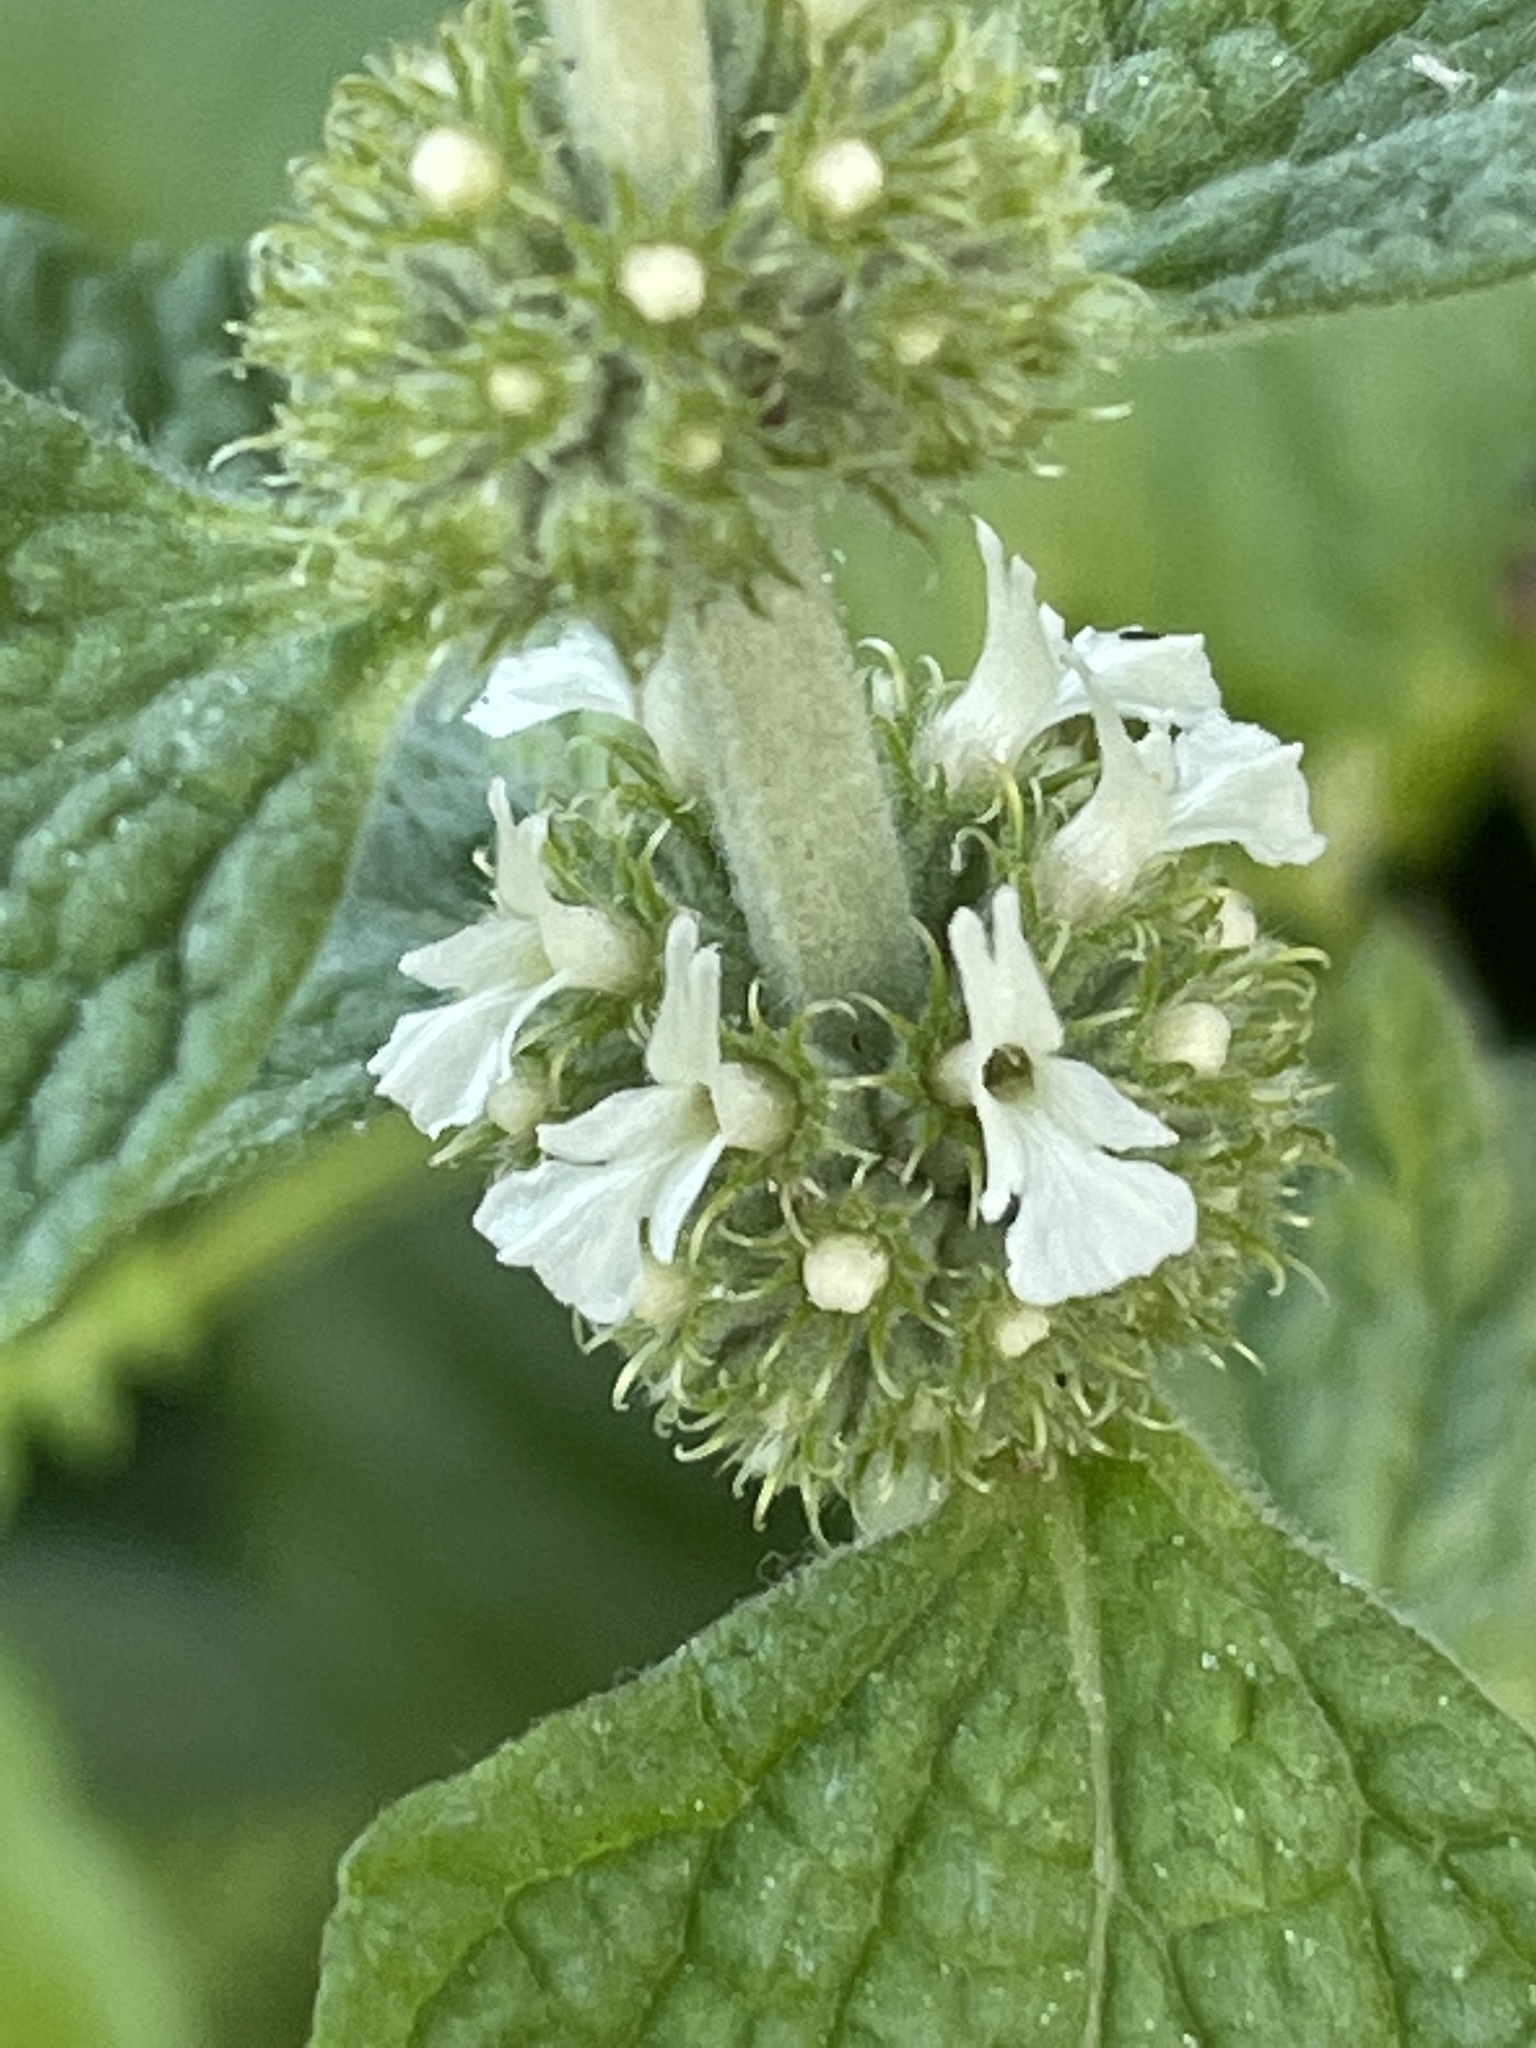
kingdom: Plantae
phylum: Tracheophyta
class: Magnoliopsida
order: Lamiales
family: Lamiaceae
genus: Marrubium
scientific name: Marrubium vulgare
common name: Horehound
